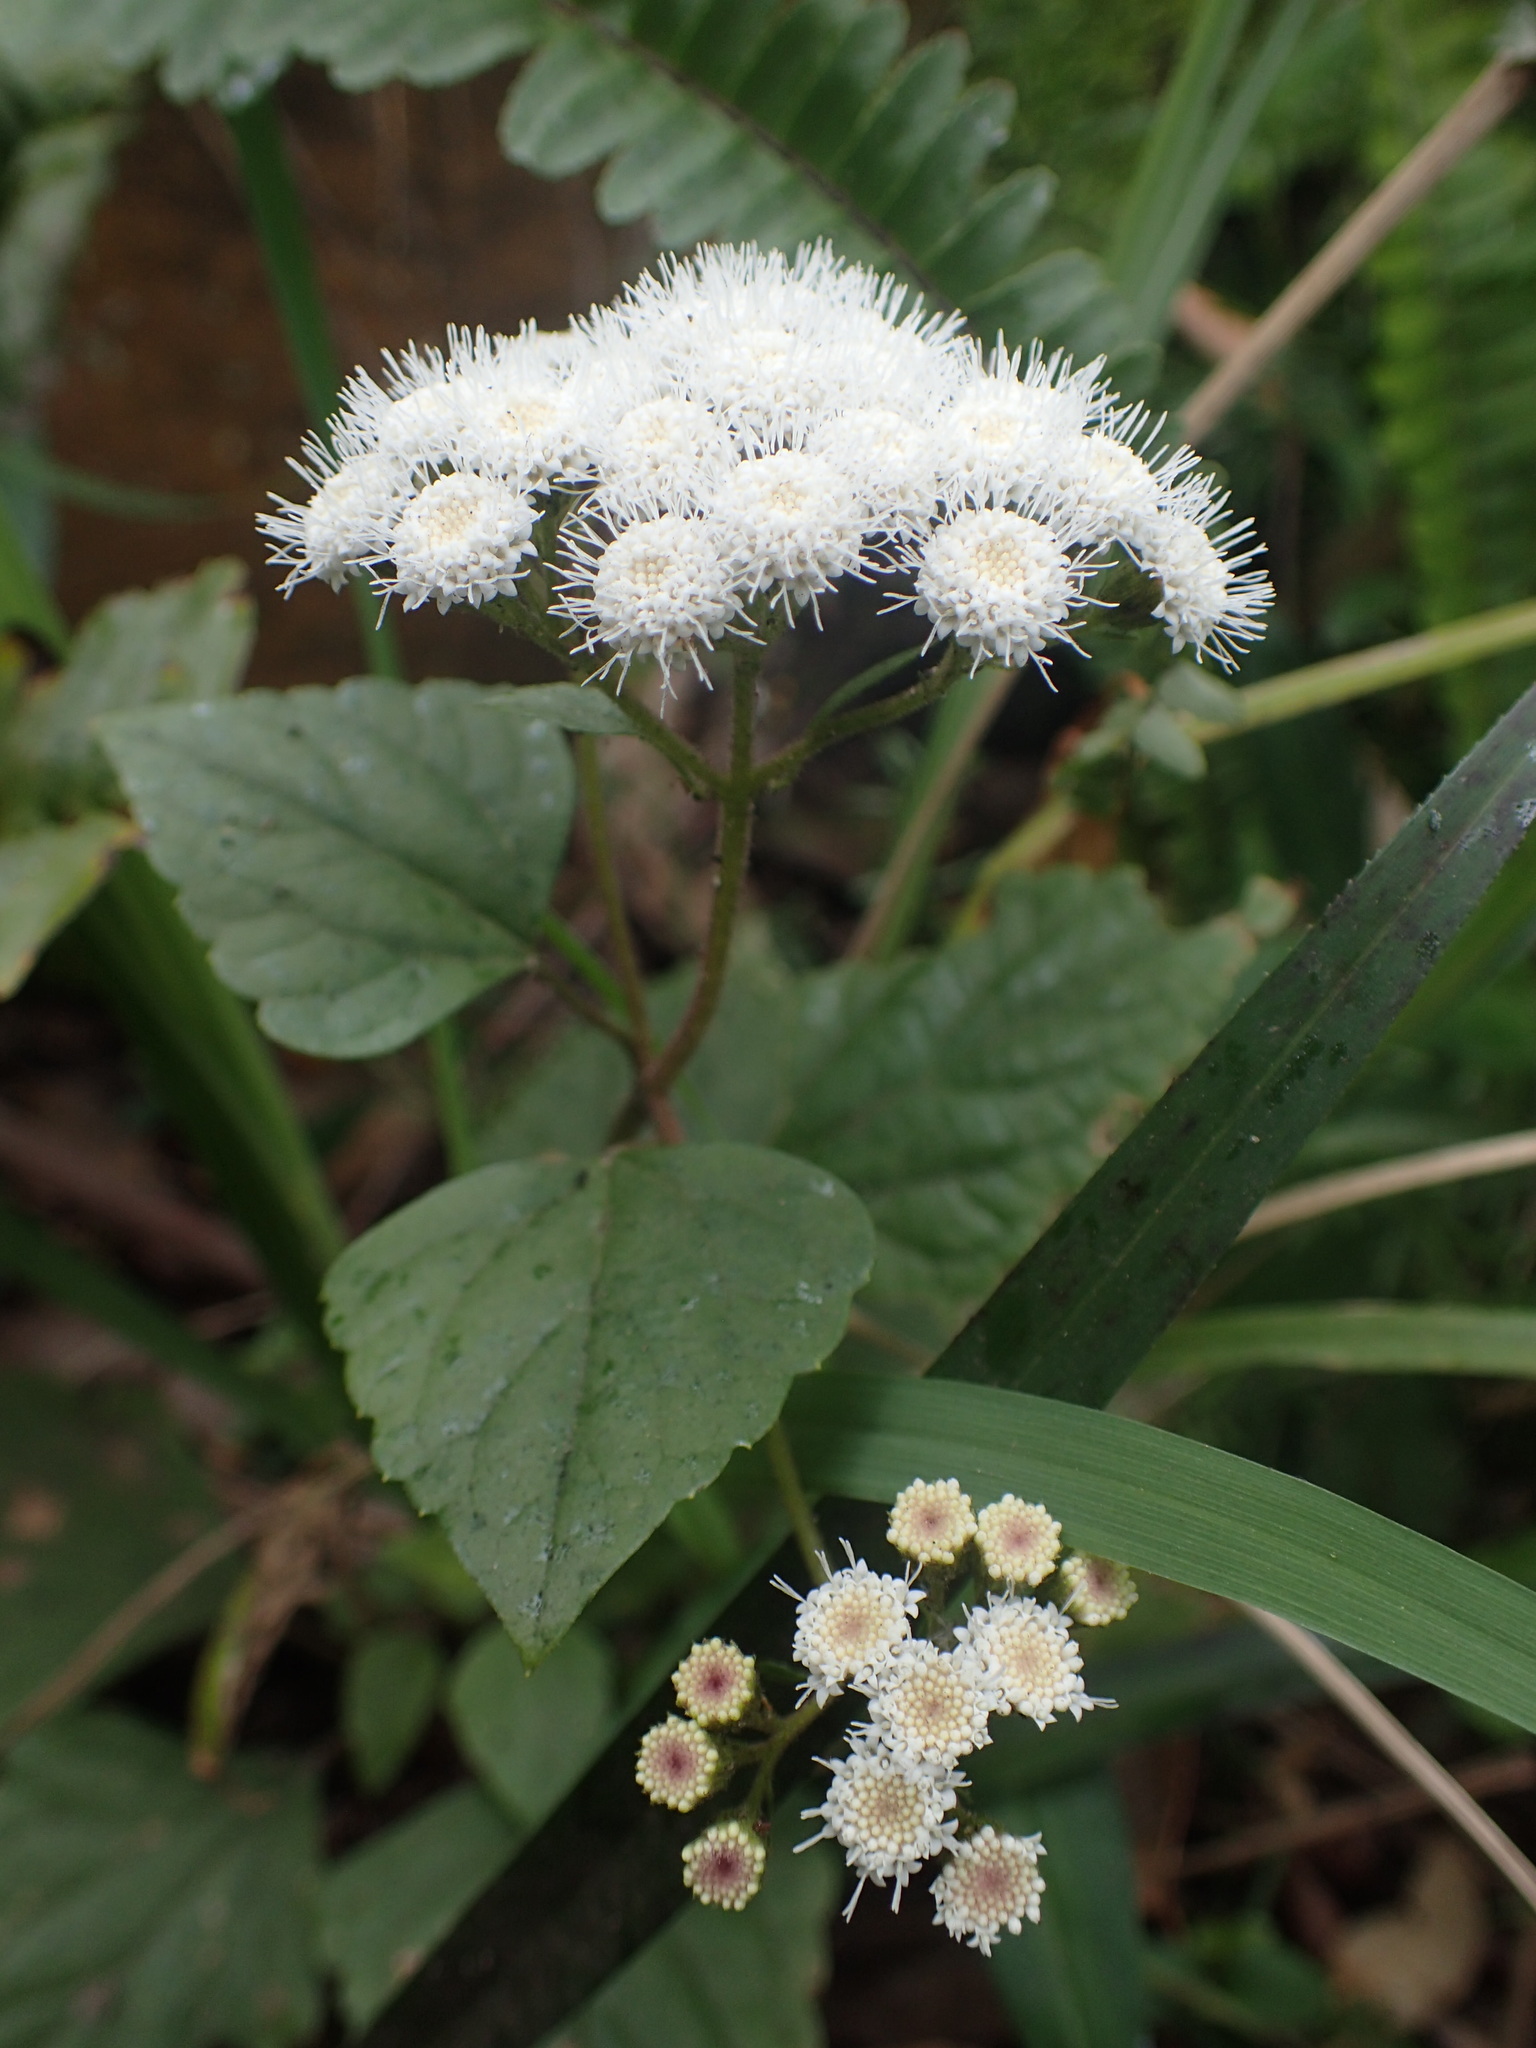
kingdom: Plantae
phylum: Tracheophyta
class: Magnoliopsida
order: Asterales
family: Asteraceae
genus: Ageratina
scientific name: Ageratina adenophora
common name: Sticky snakeroot
